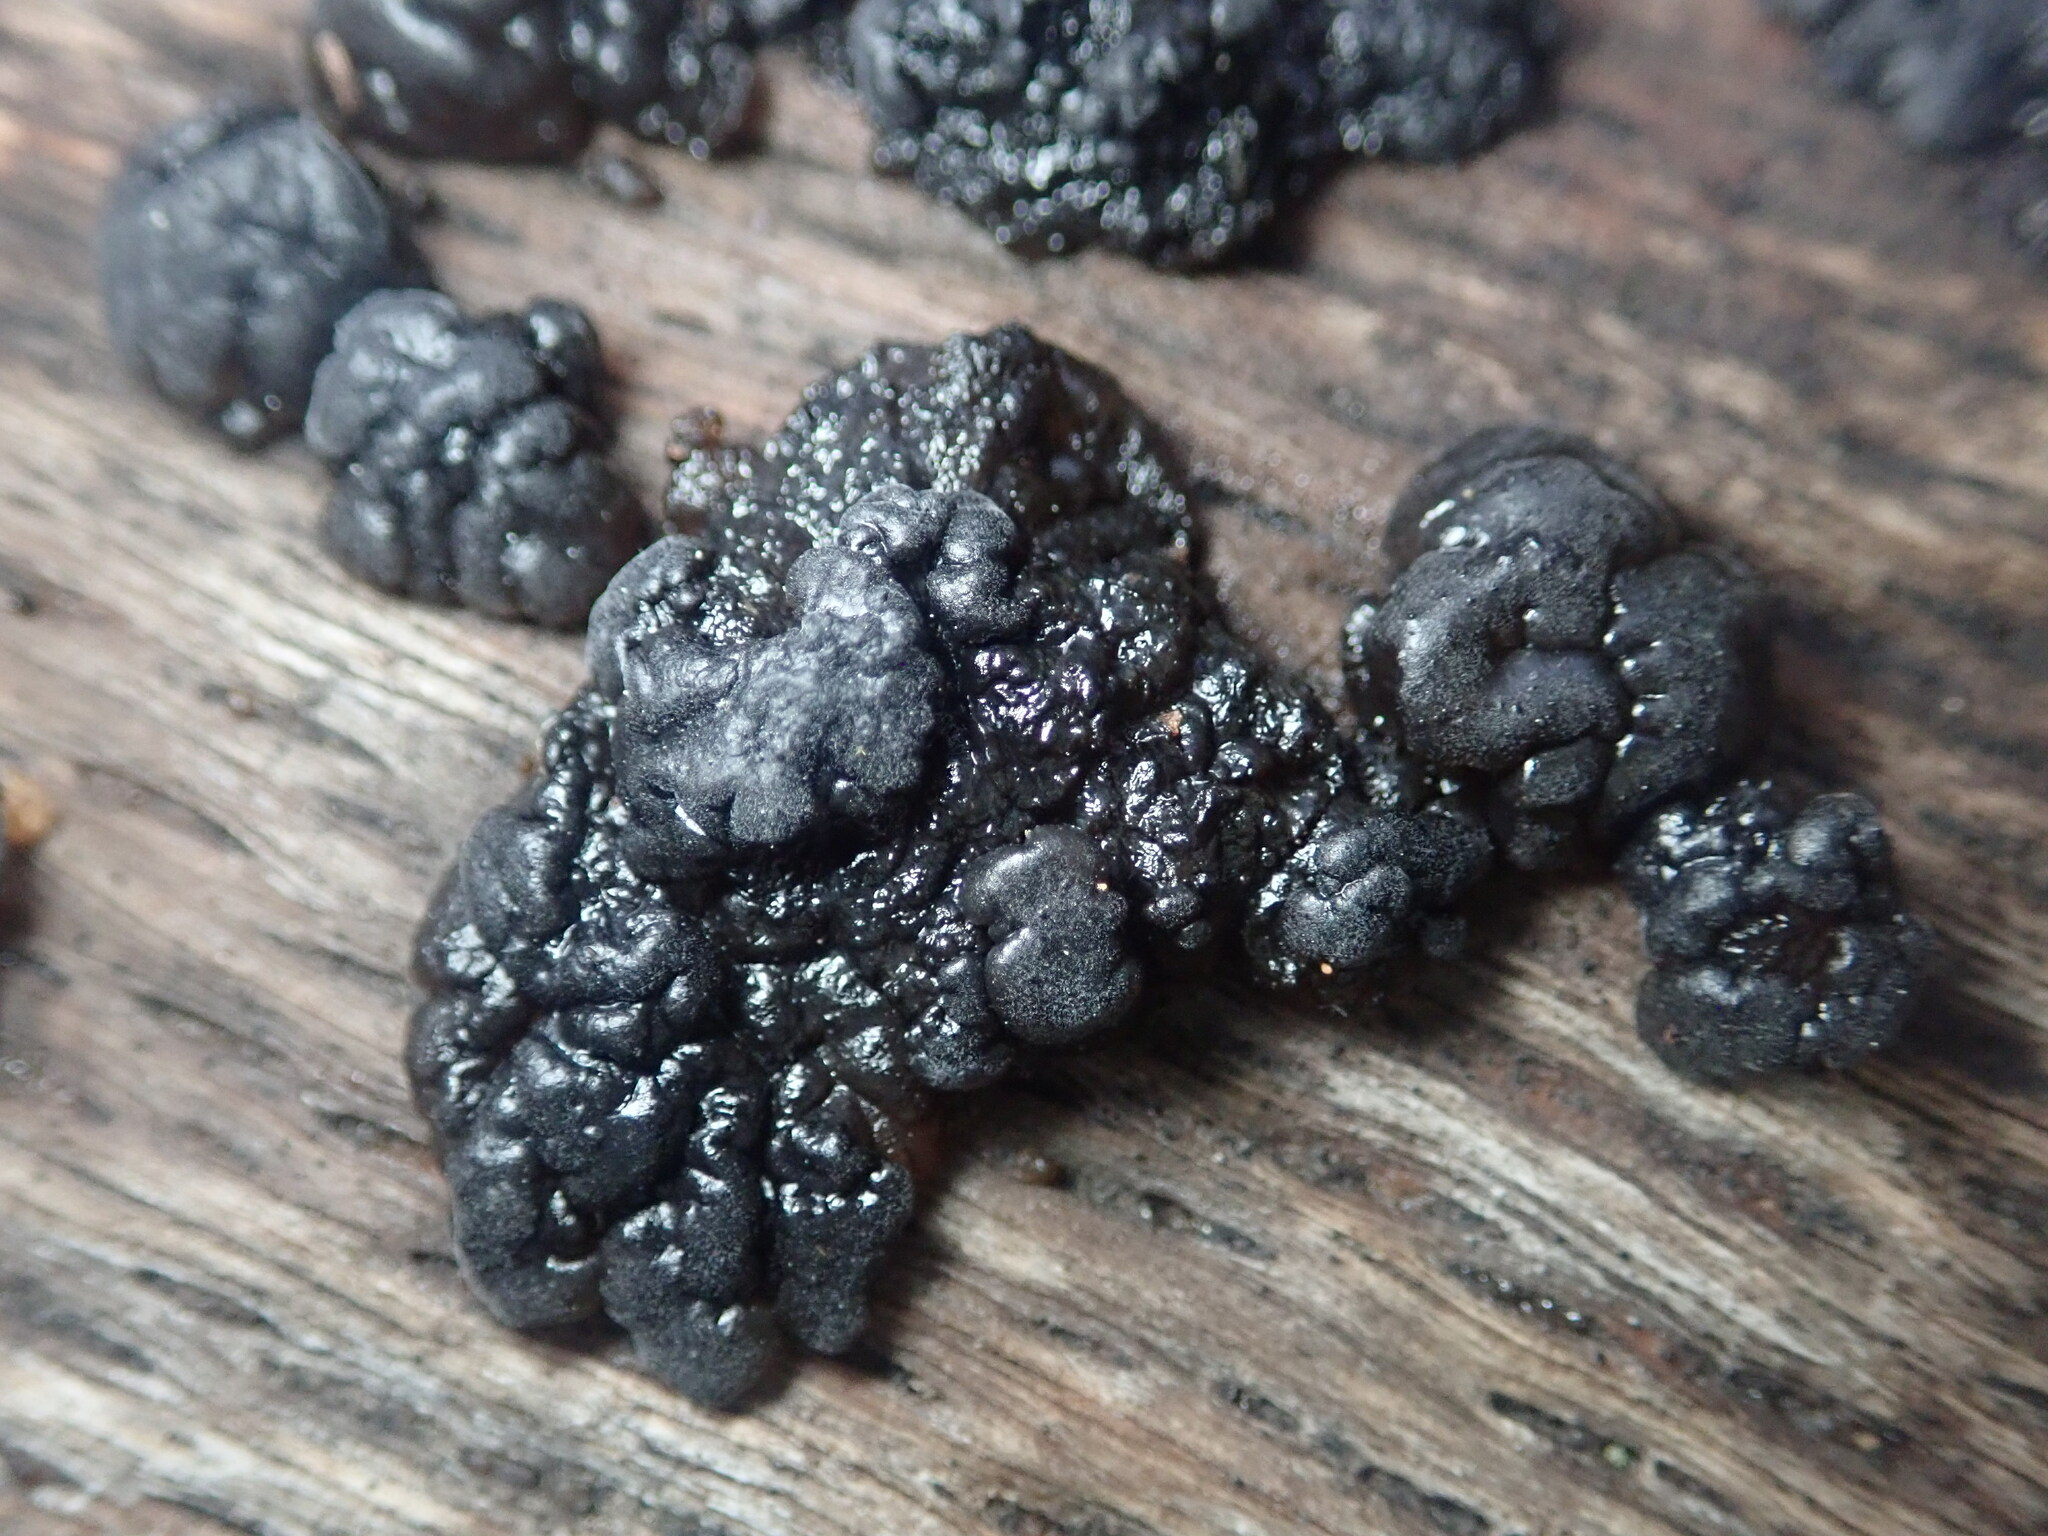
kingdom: Fungi
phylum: Basidiomycota
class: Agaricomycetes
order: Auriculariales
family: Auriculariaceae
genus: Exidia
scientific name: Exidia glandulosa
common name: Witches' butter
